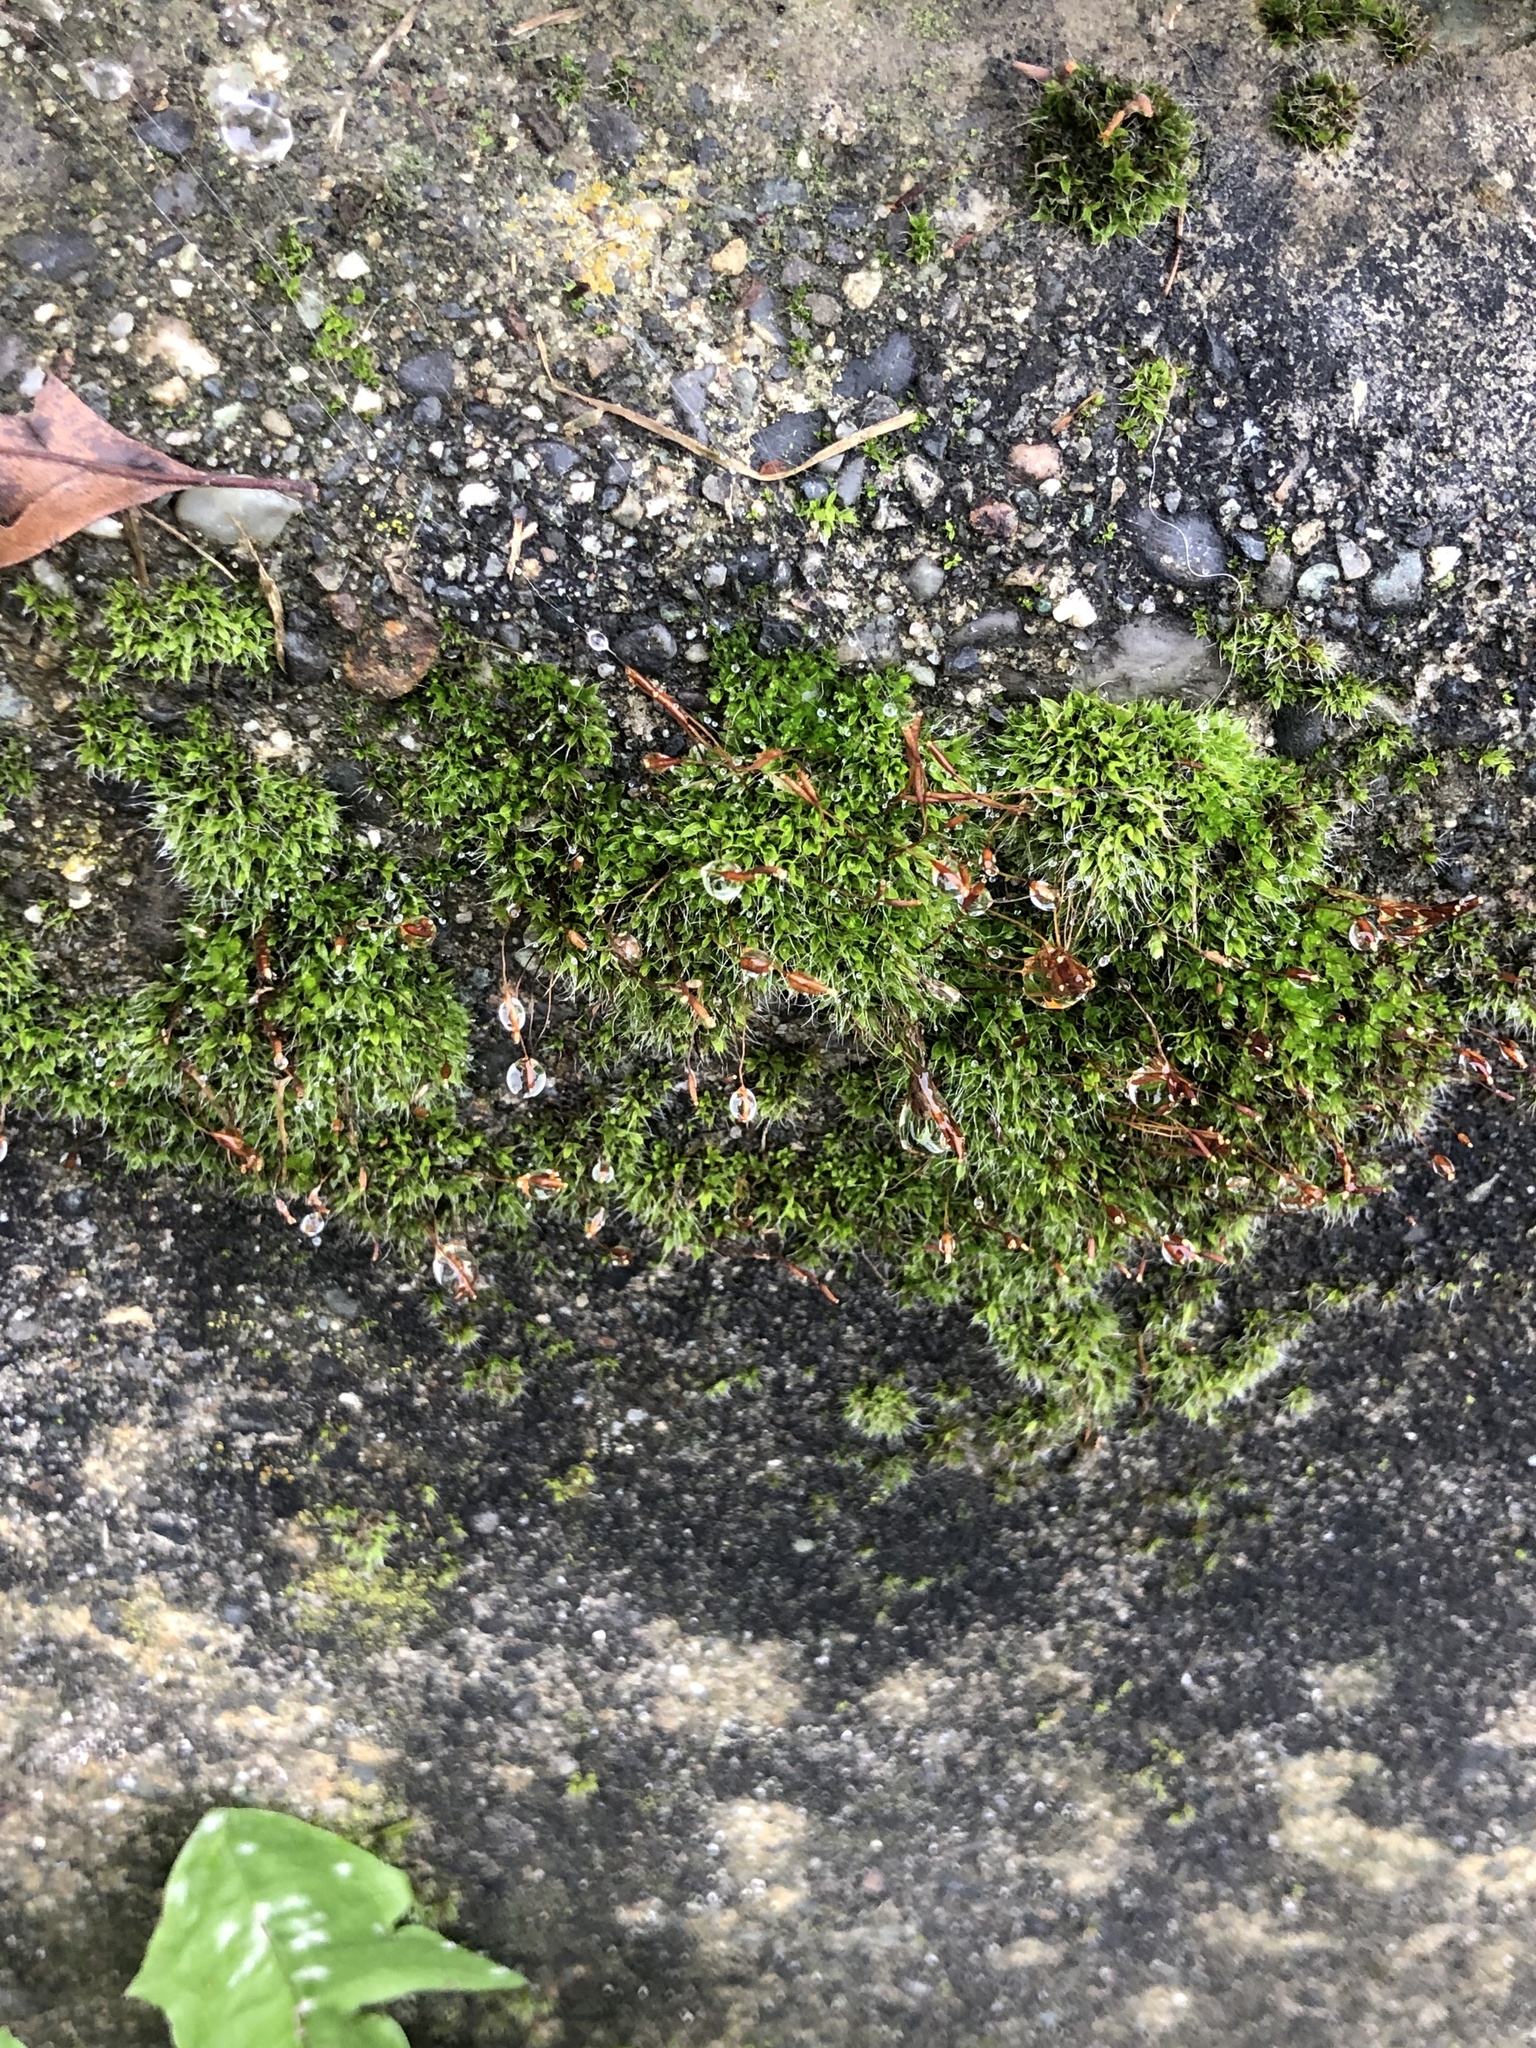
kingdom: Plantae
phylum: Bryophyta
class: Bryopsida
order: Pottiales
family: Pottiaceae
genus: Tortula
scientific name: Tortula muralis
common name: Wall screw-moss
